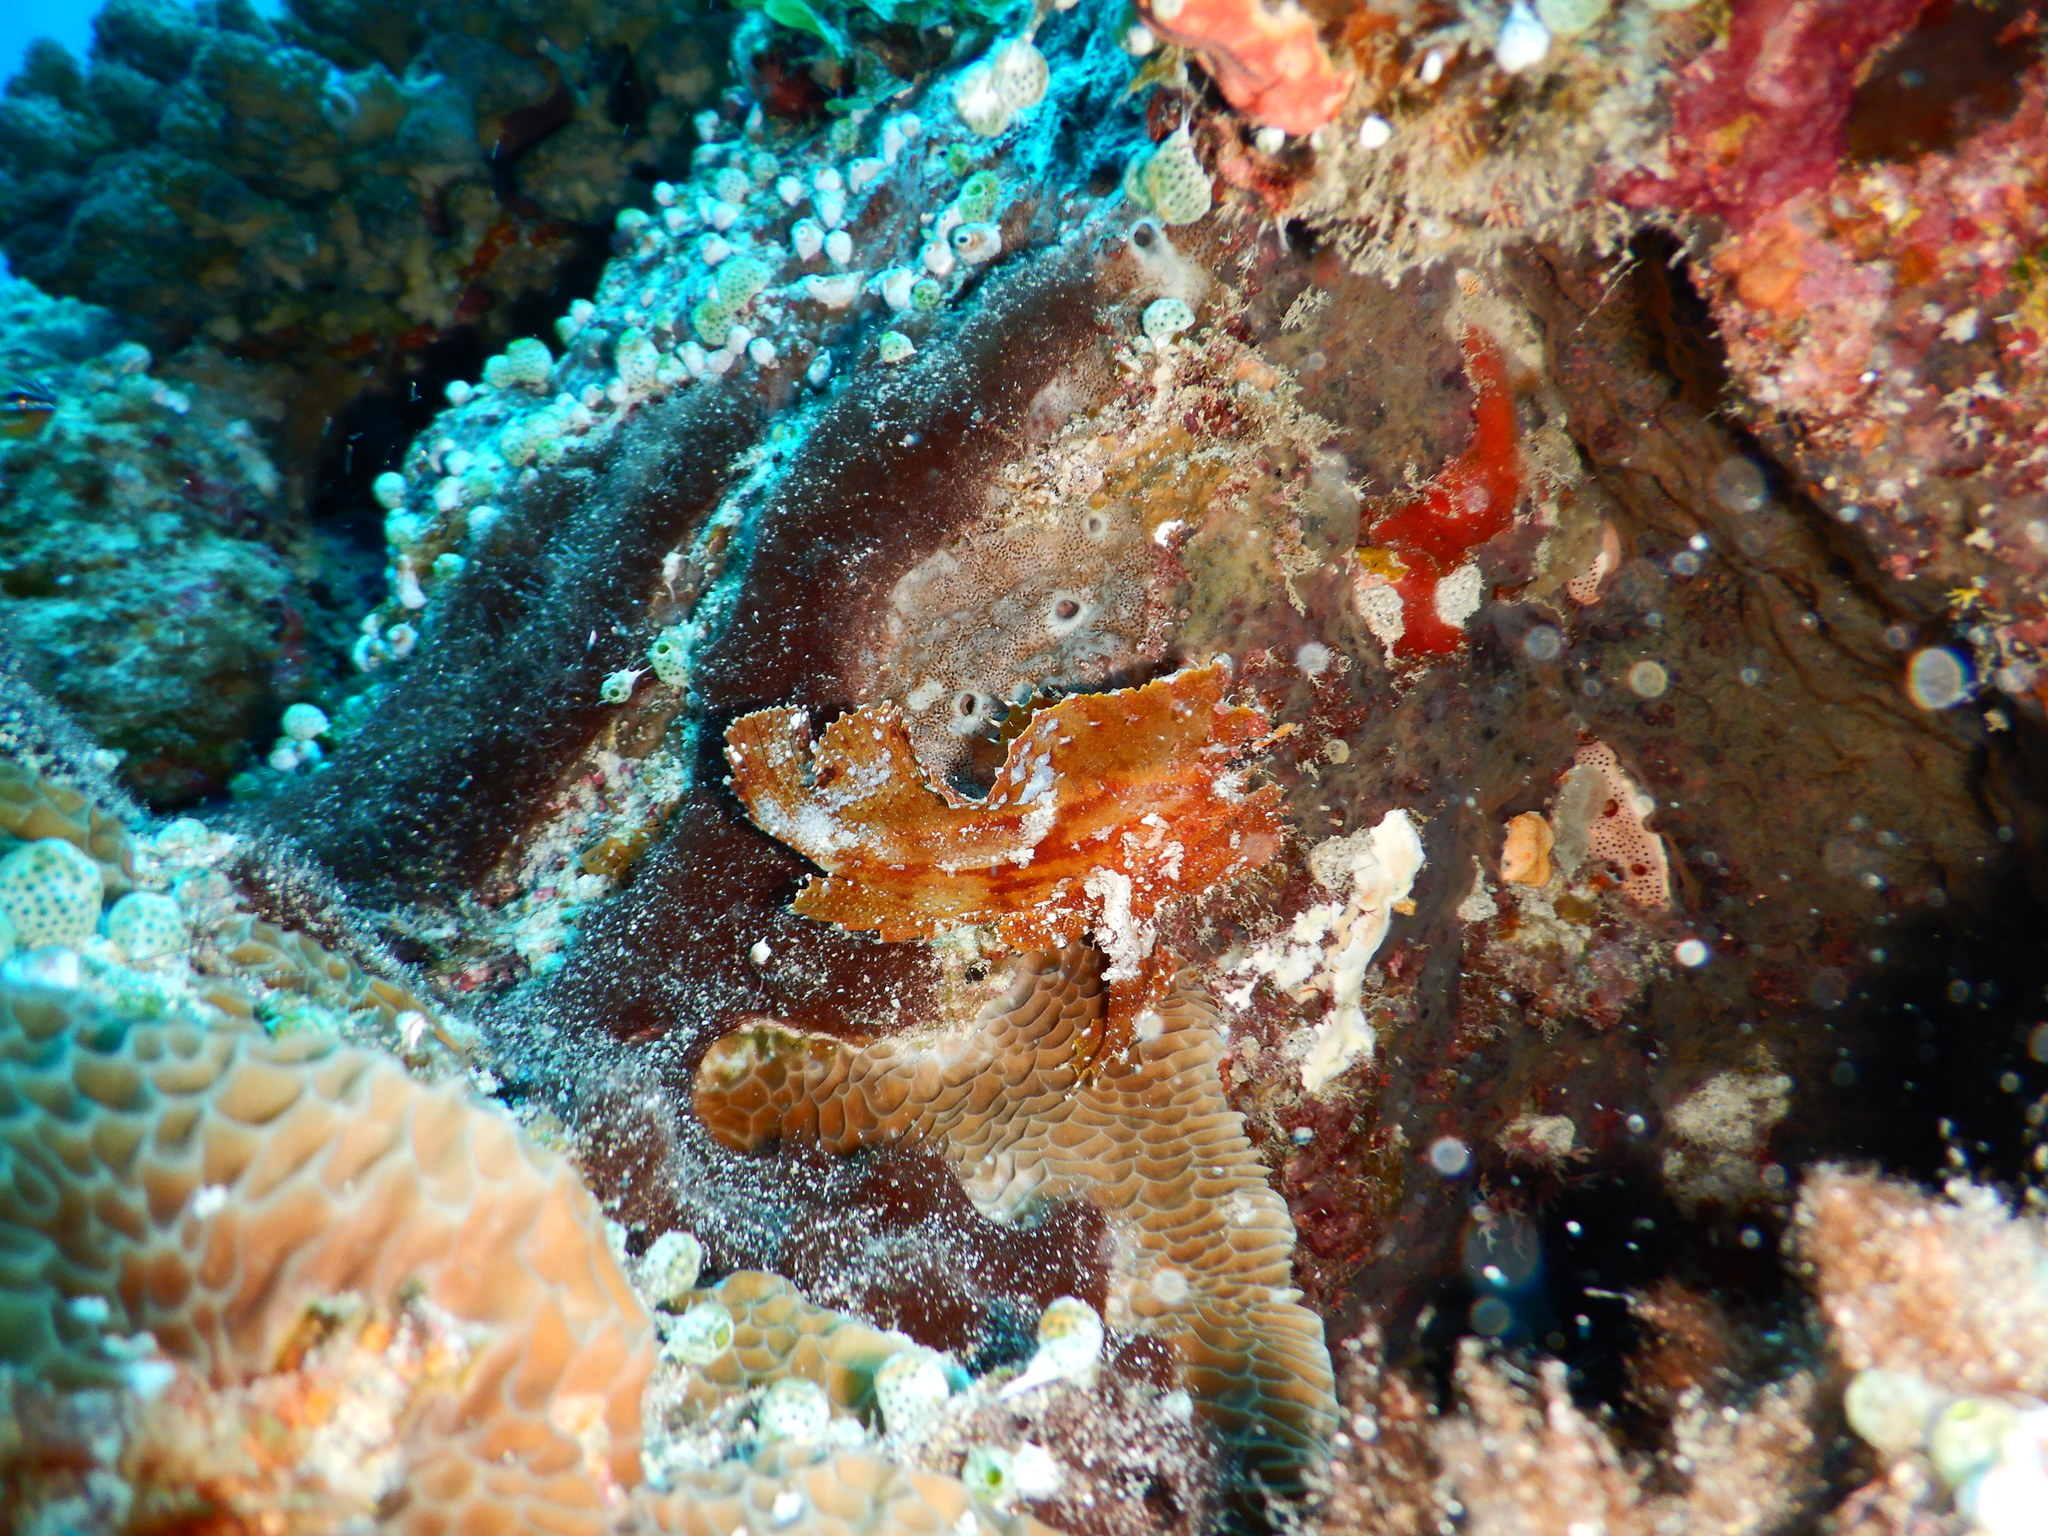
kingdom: Animalia
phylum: Chordata
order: Scorpaeniformes
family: Scorpaenidae
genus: Taenianotus
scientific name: Taenianotus triacanthus
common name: Leaf scorpionfish
